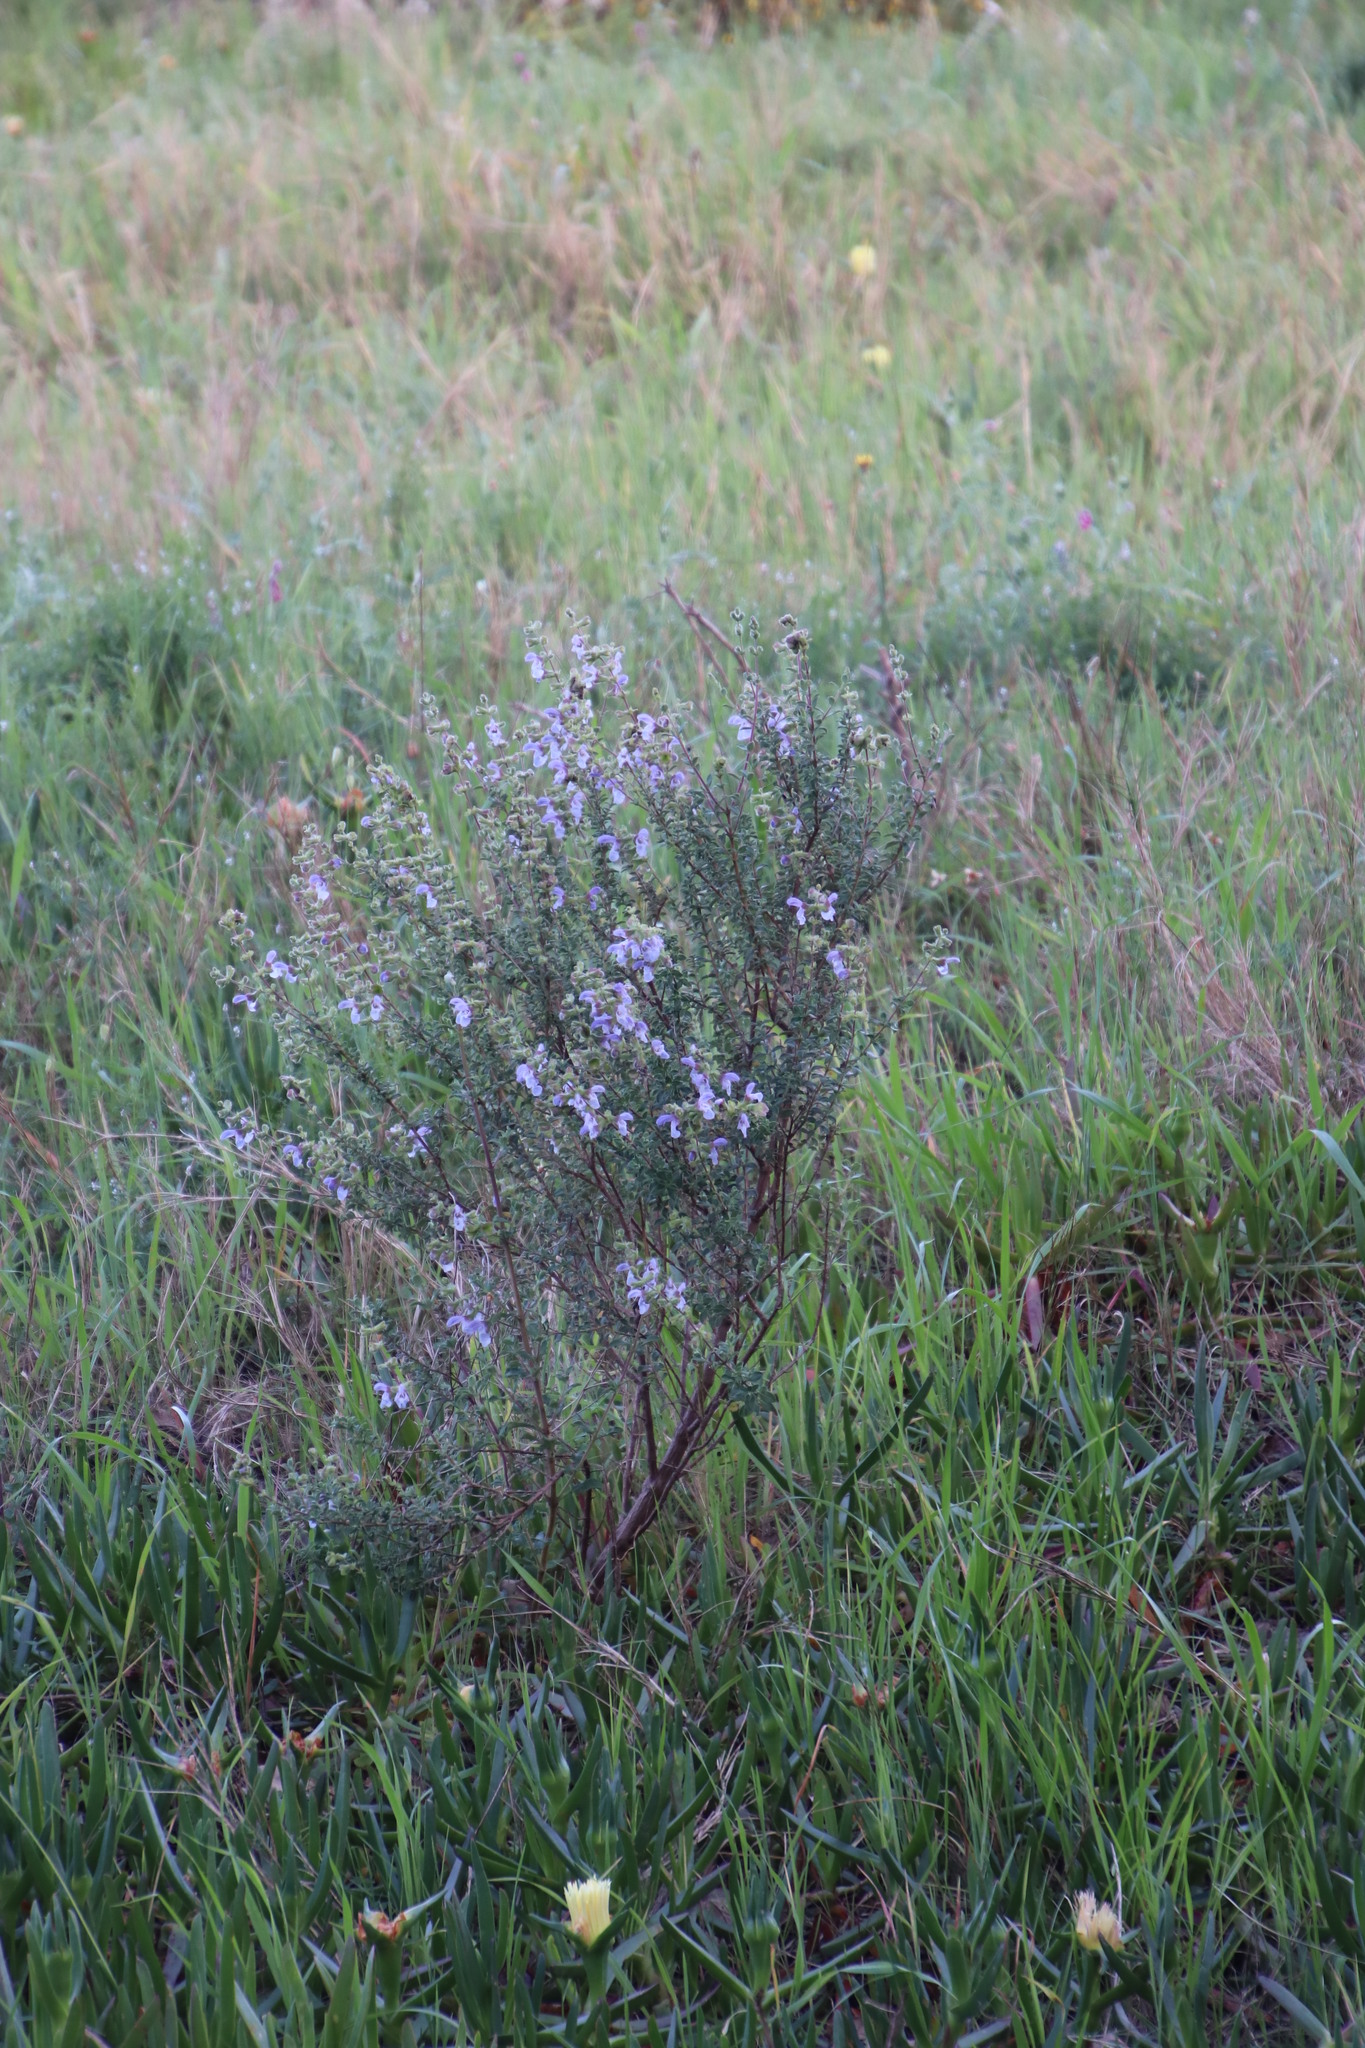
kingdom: Plantae
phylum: Tracheophyta
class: Magnoliopsida
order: Lamiales
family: Lamiaceae
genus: Salvia
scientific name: Salvia africana
